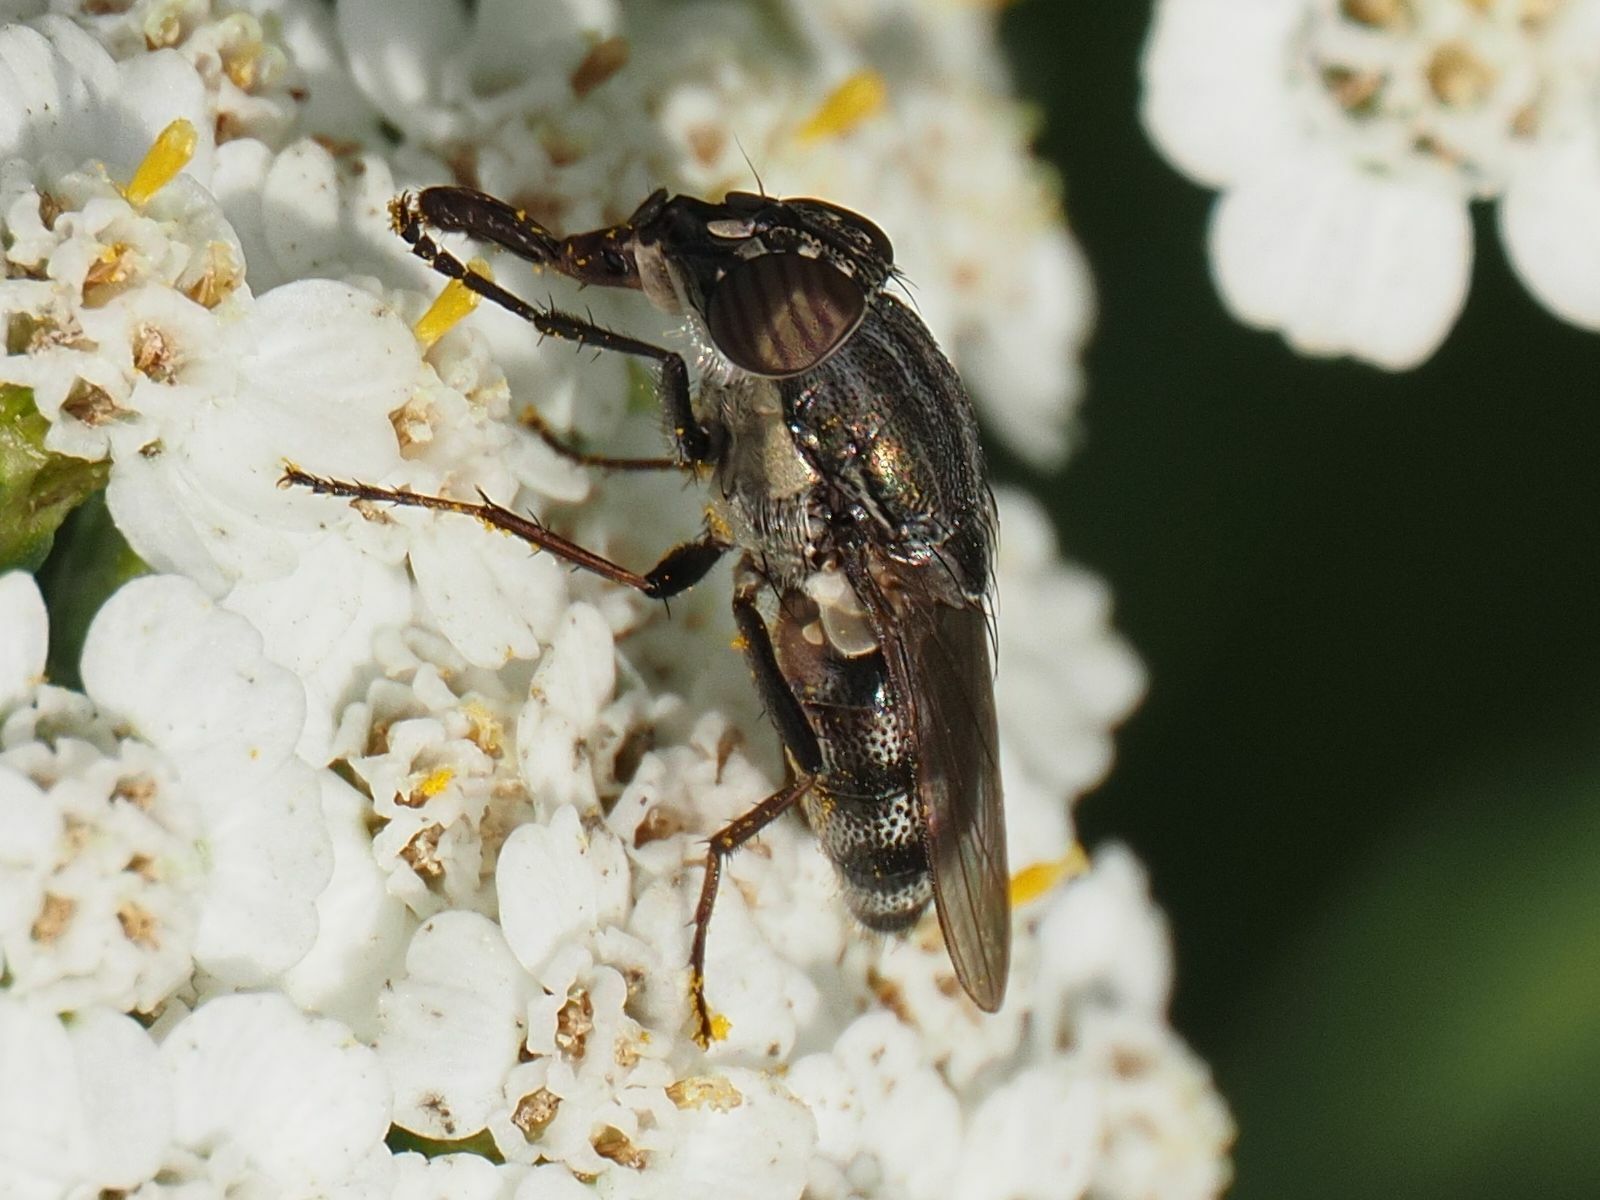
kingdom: Animalia
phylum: Arthropoda
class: Insecta
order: Diptera
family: Calliphoridae
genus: Stomorhina
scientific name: Stomorhina lunata
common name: Locust blowfly
